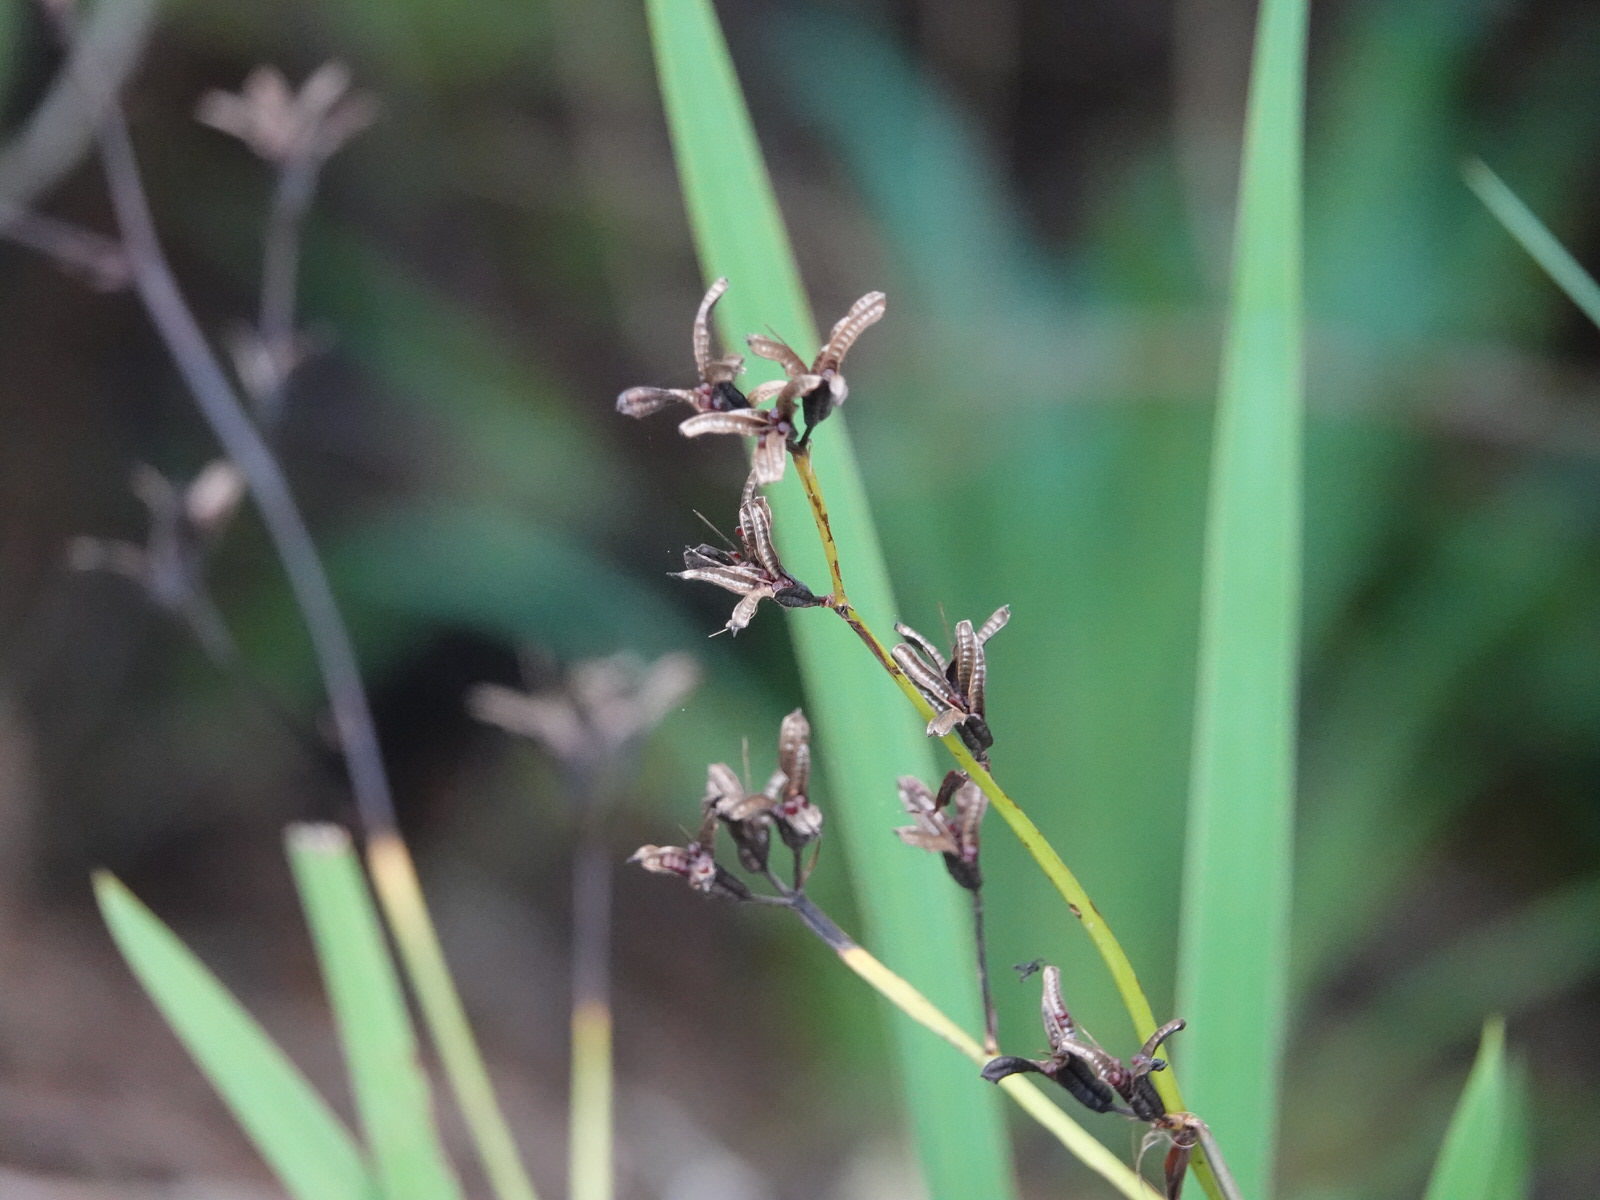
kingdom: Plantae
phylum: Tracheophyta
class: Liliopsida
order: Asparagales
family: Iridaceae
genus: Aristea
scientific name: Aristea ecklonii
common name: Blue corn-lily
